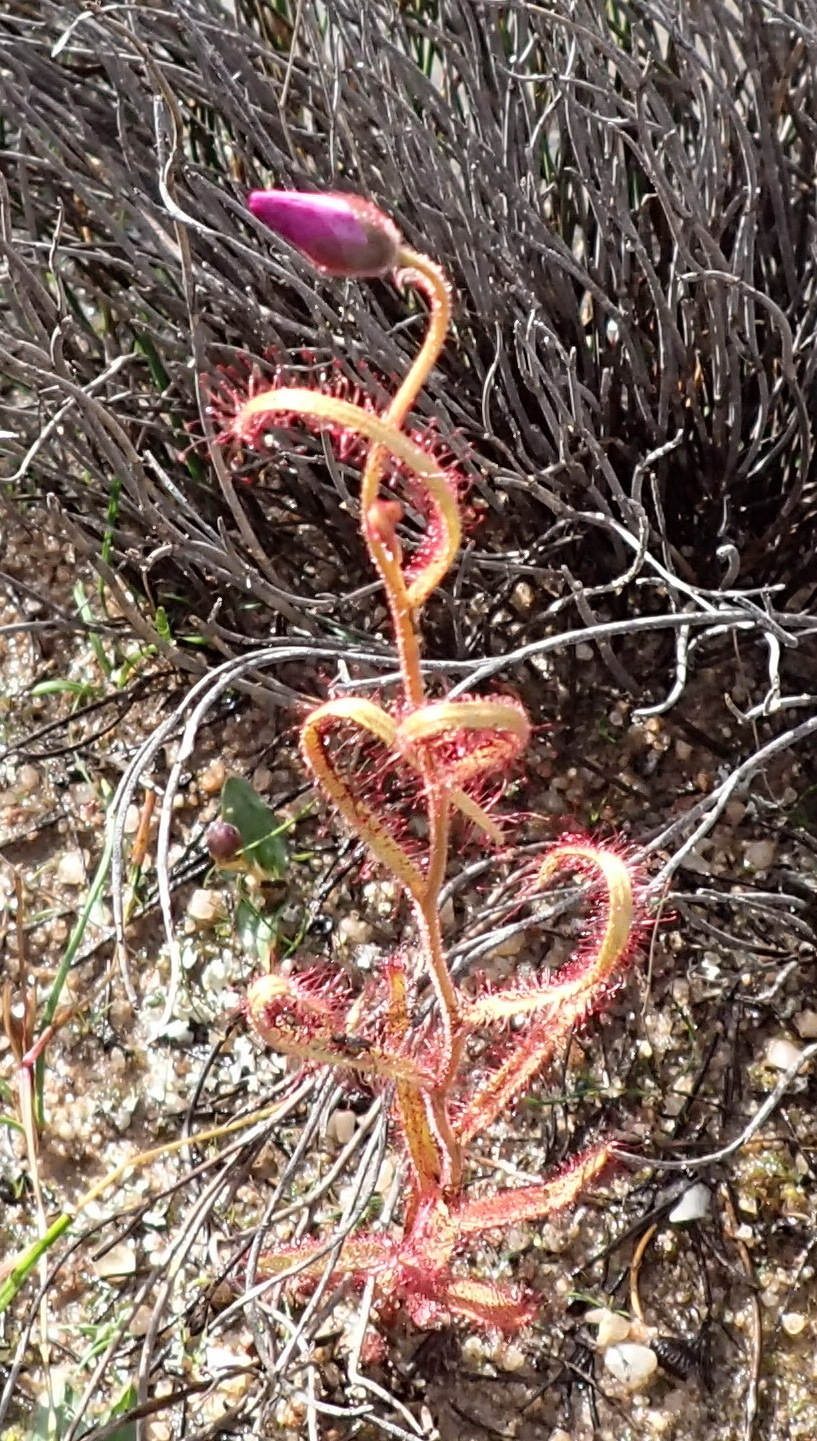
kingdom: Plantae
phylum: Tracheophyta
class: Magnoliopsida
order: Caryophyllales
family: Droseraceae
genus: Drosera
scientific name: Drosera cistiflora
